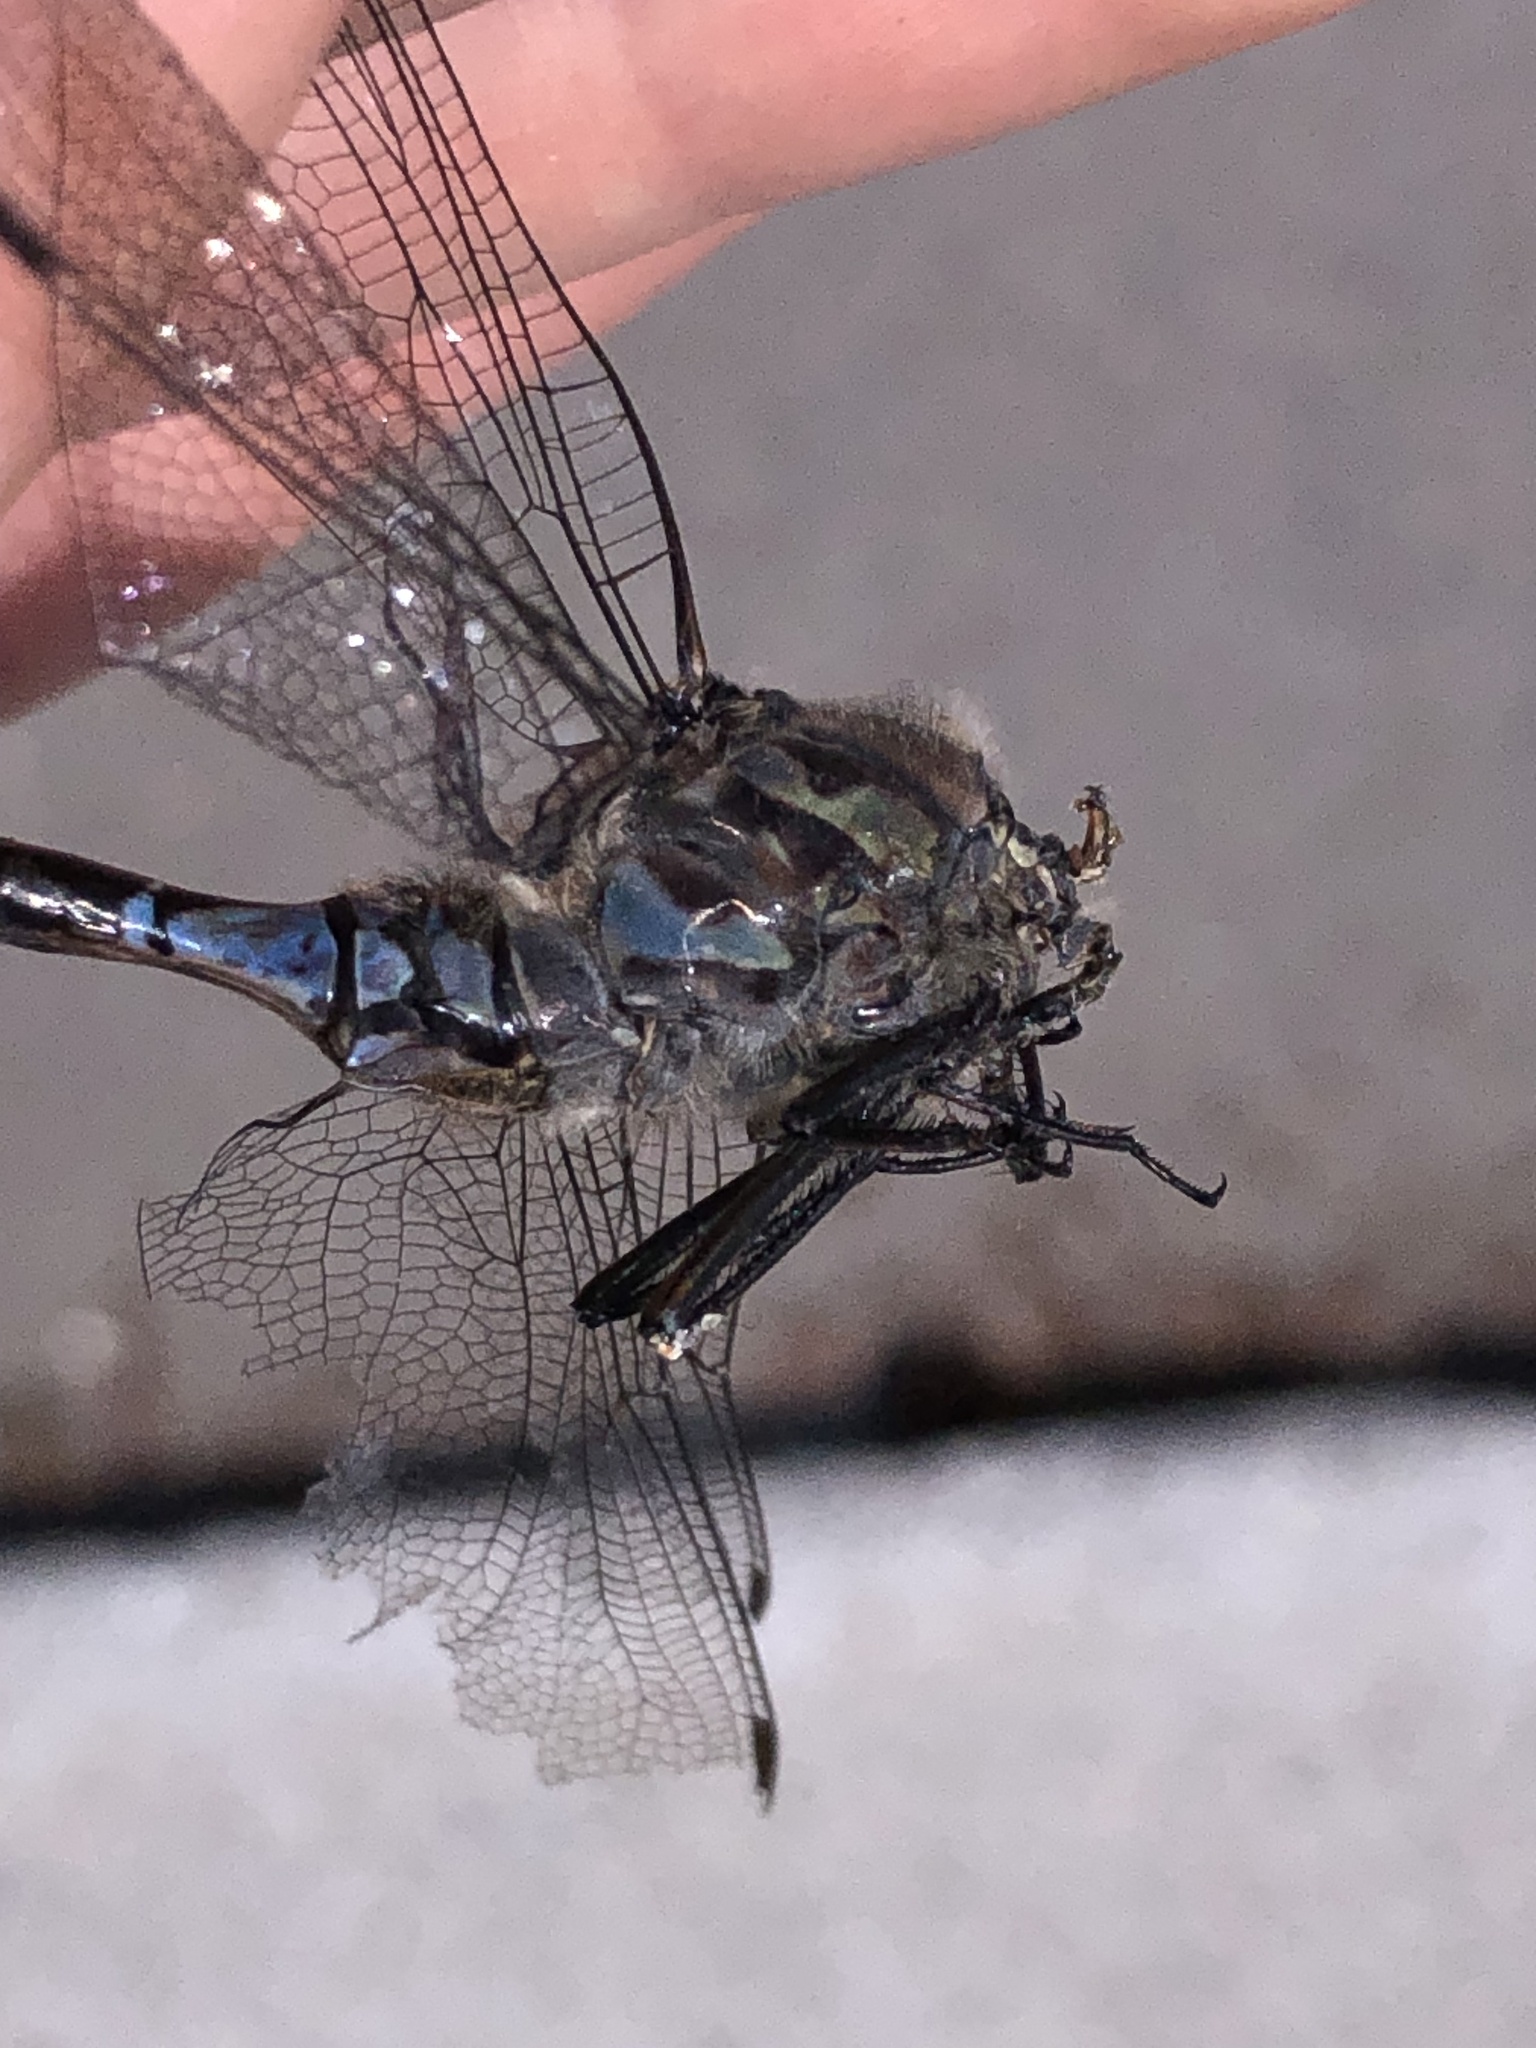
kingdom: Animalia
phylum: Arthropoda
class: Insecta
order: Odonata
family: Aeshnidae
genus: Aeshna
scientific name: Aeshna eremita
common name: Lake darner
